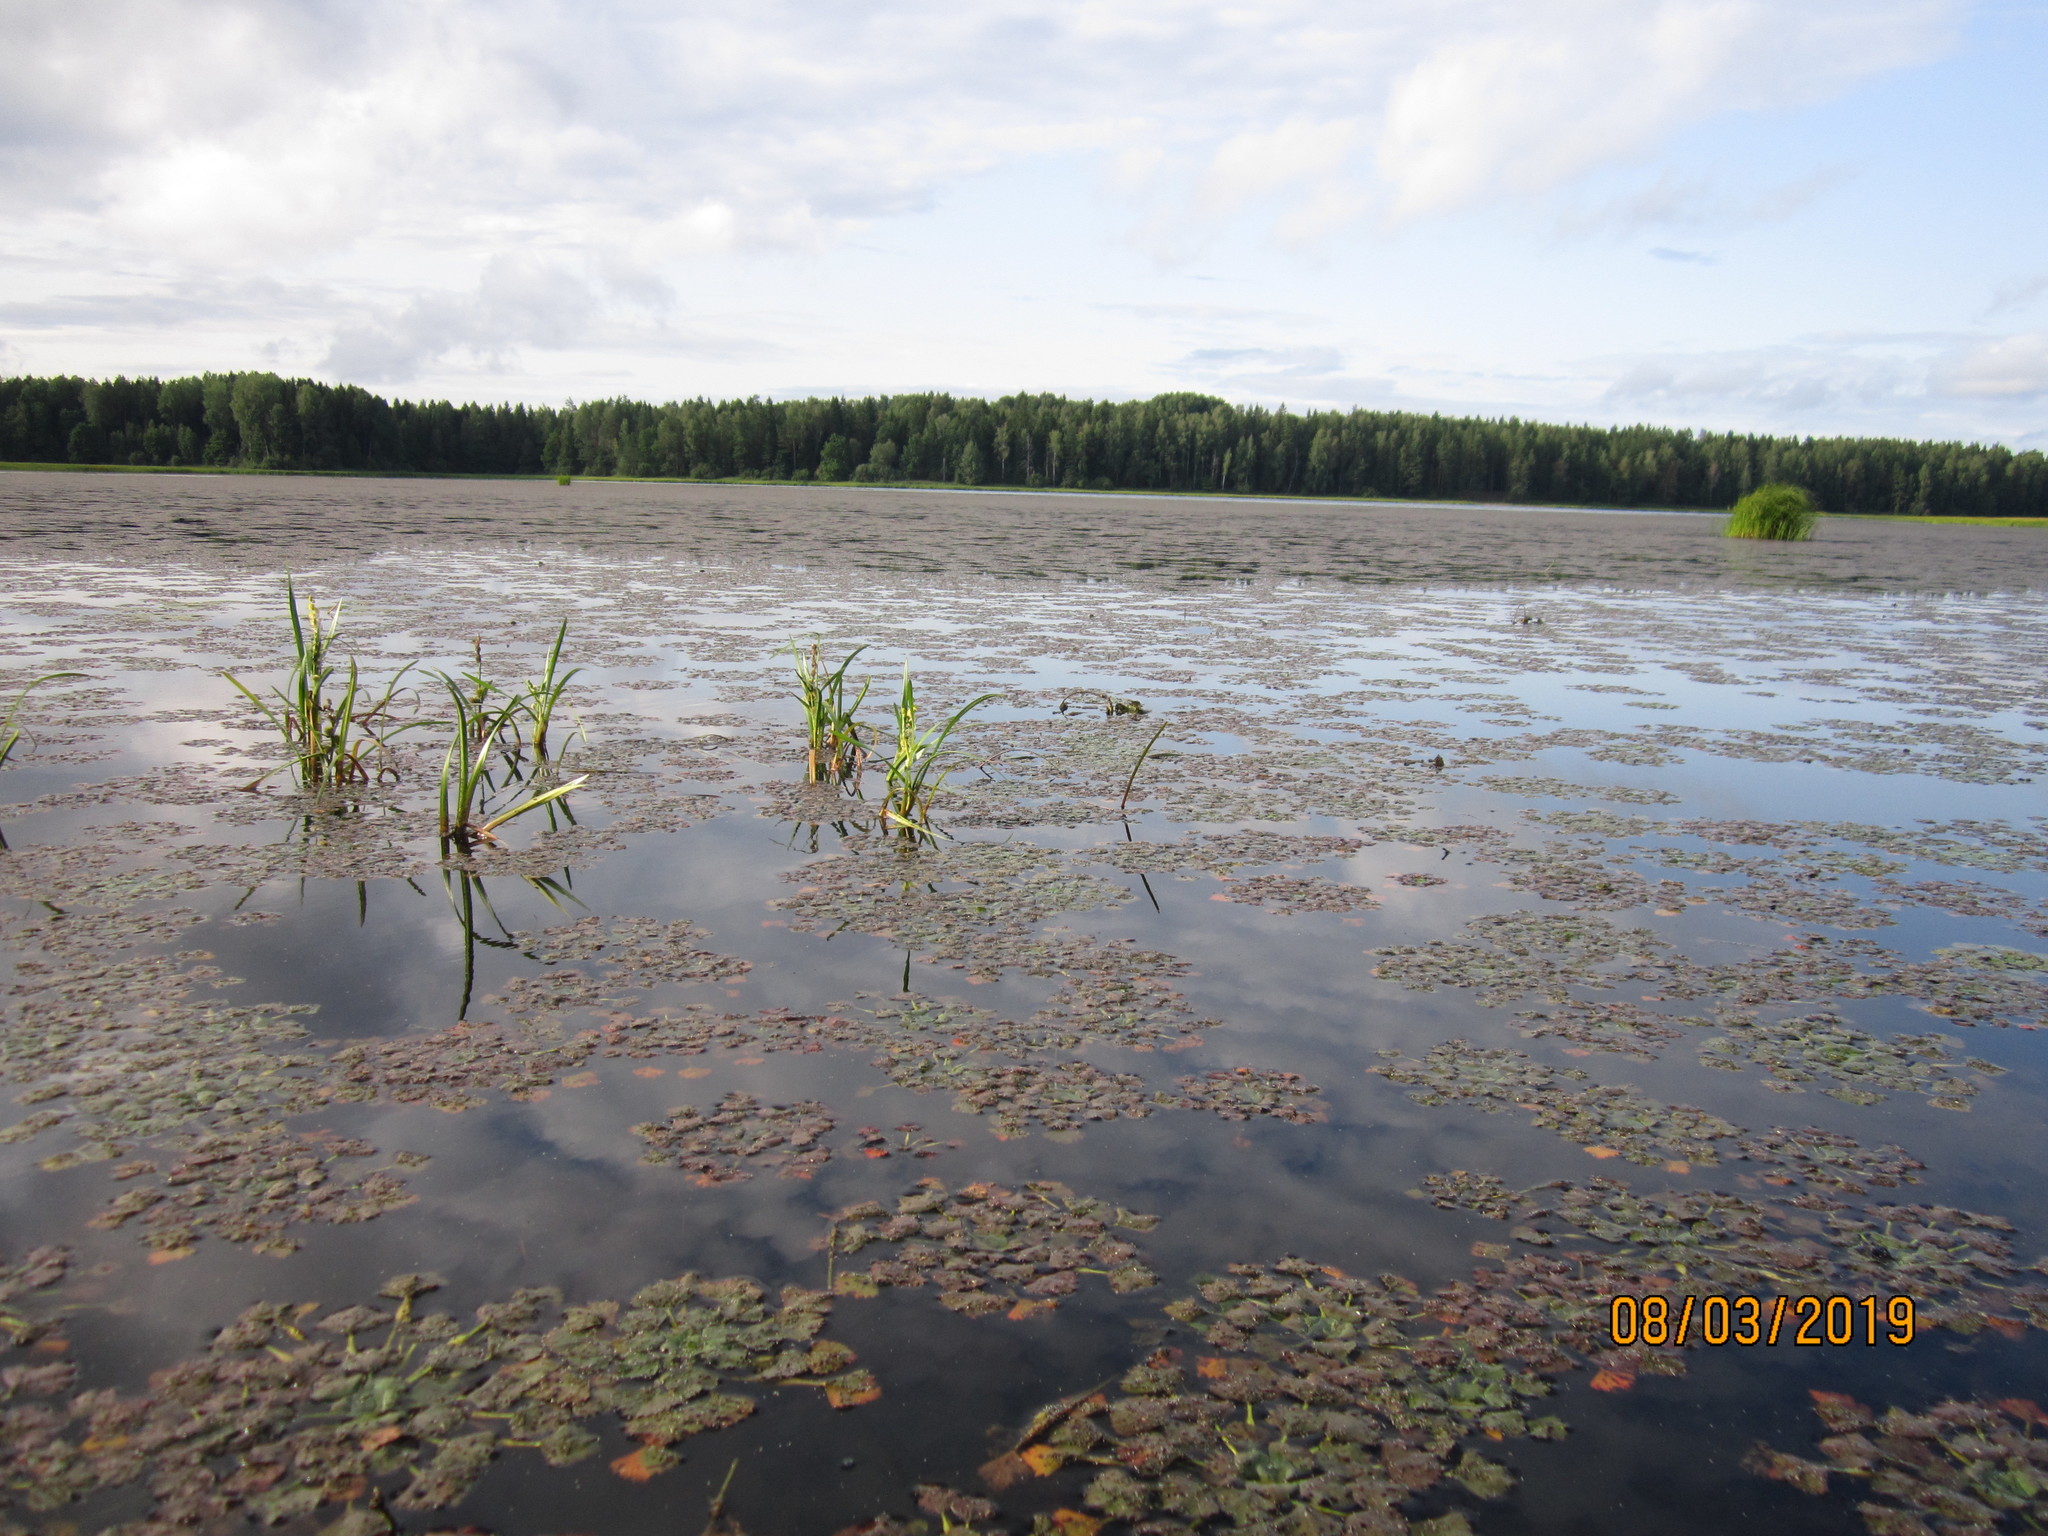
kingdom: Plantae
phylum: Tracheophyta
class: Magnoliopsida
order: Myrtales
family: Lythraceae
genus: Trapa
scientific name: Trapa natans
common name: Water chestnut
